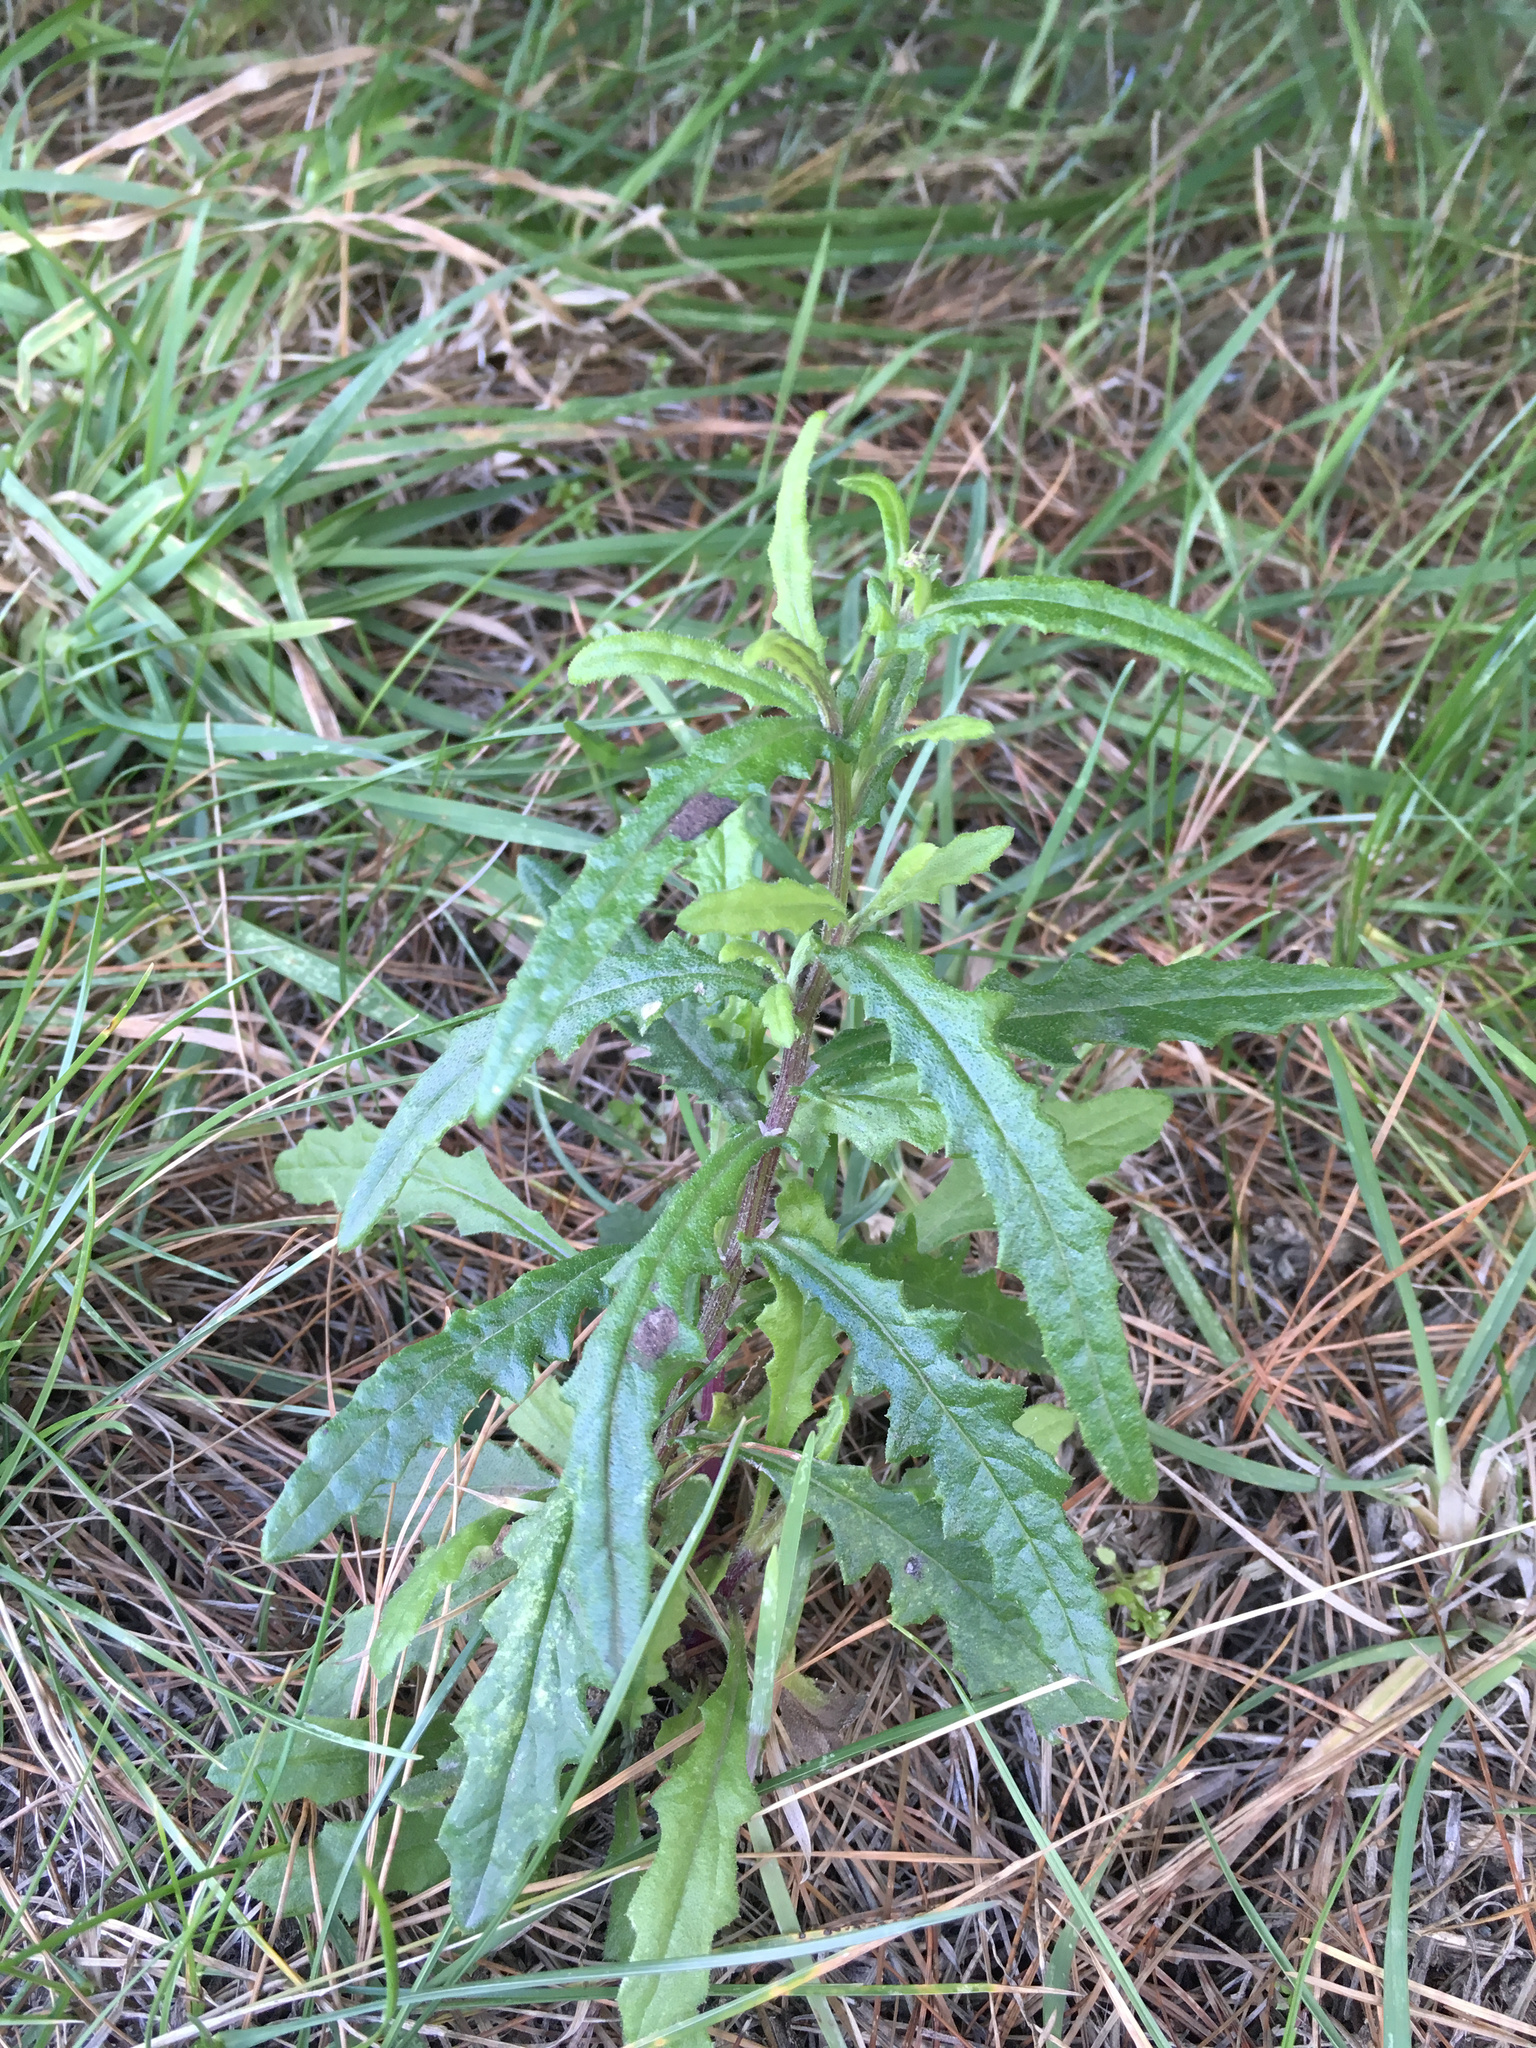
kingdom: Plantae
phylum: Tracheophyta
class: Magnoliopsida
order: Asterales
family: Asteraceae
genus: Senecio
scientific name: Senecio hispidulus
